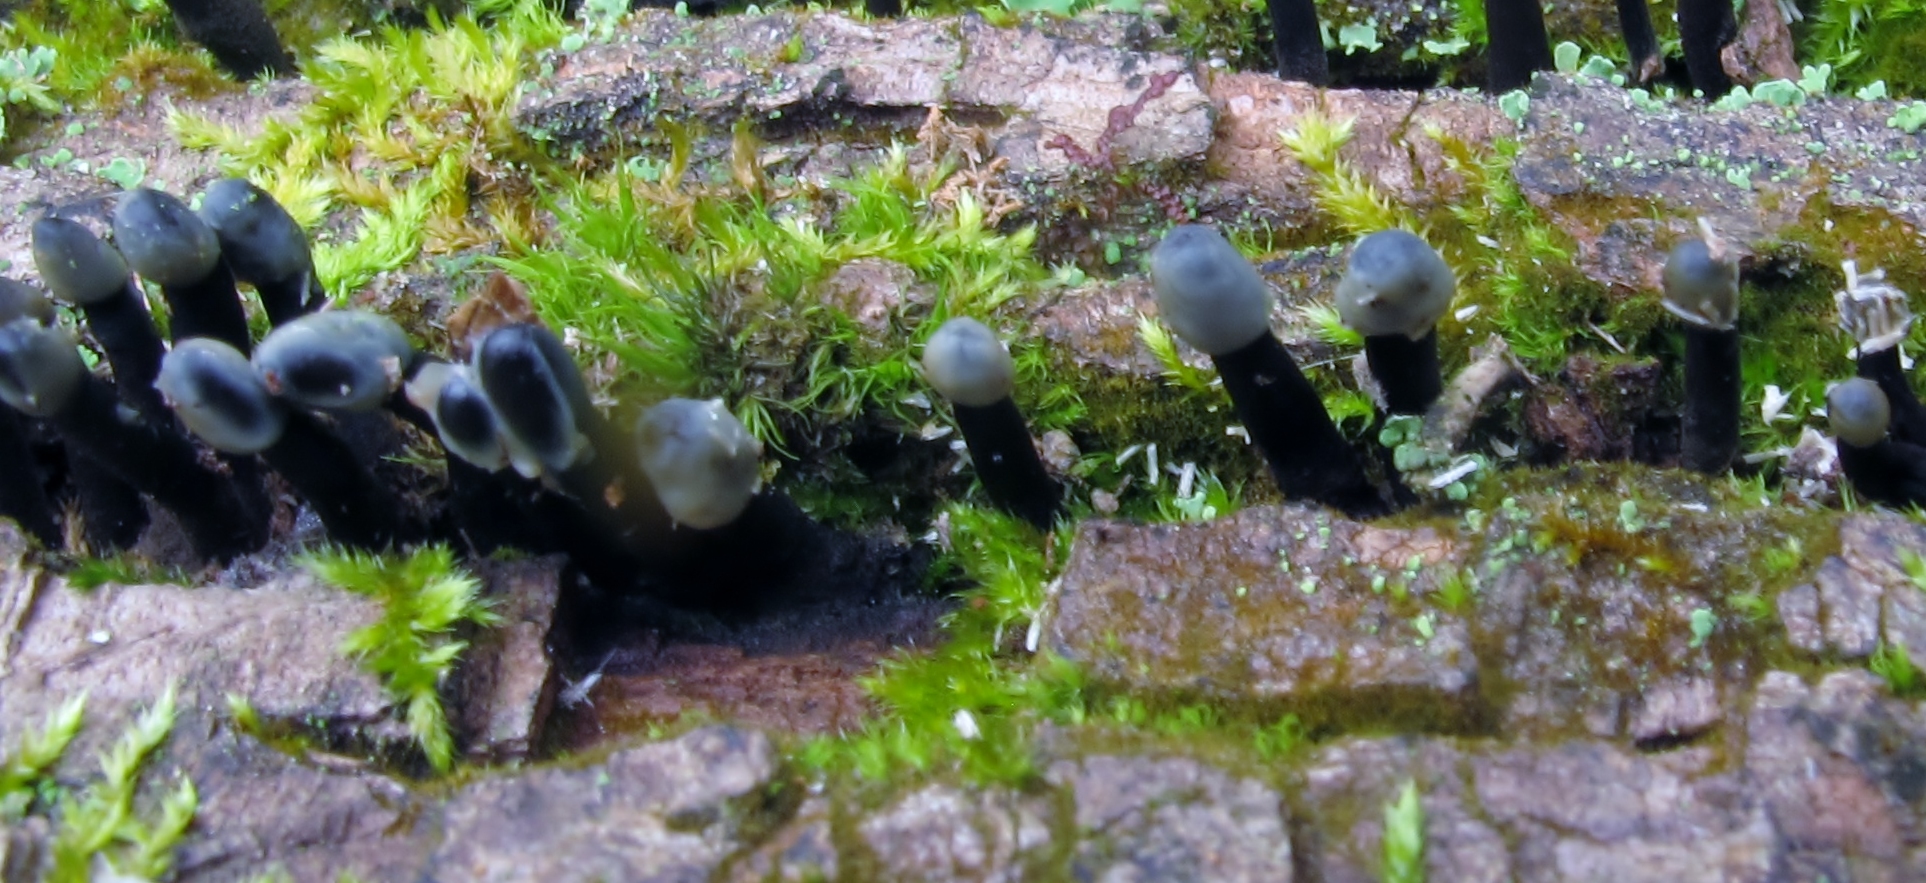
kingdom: Fungi
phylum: Ascomycota
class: Leotiomycetes
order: Helotiales
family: Bulgariaceae
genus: Holwaya
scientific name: Holwaya mucida
